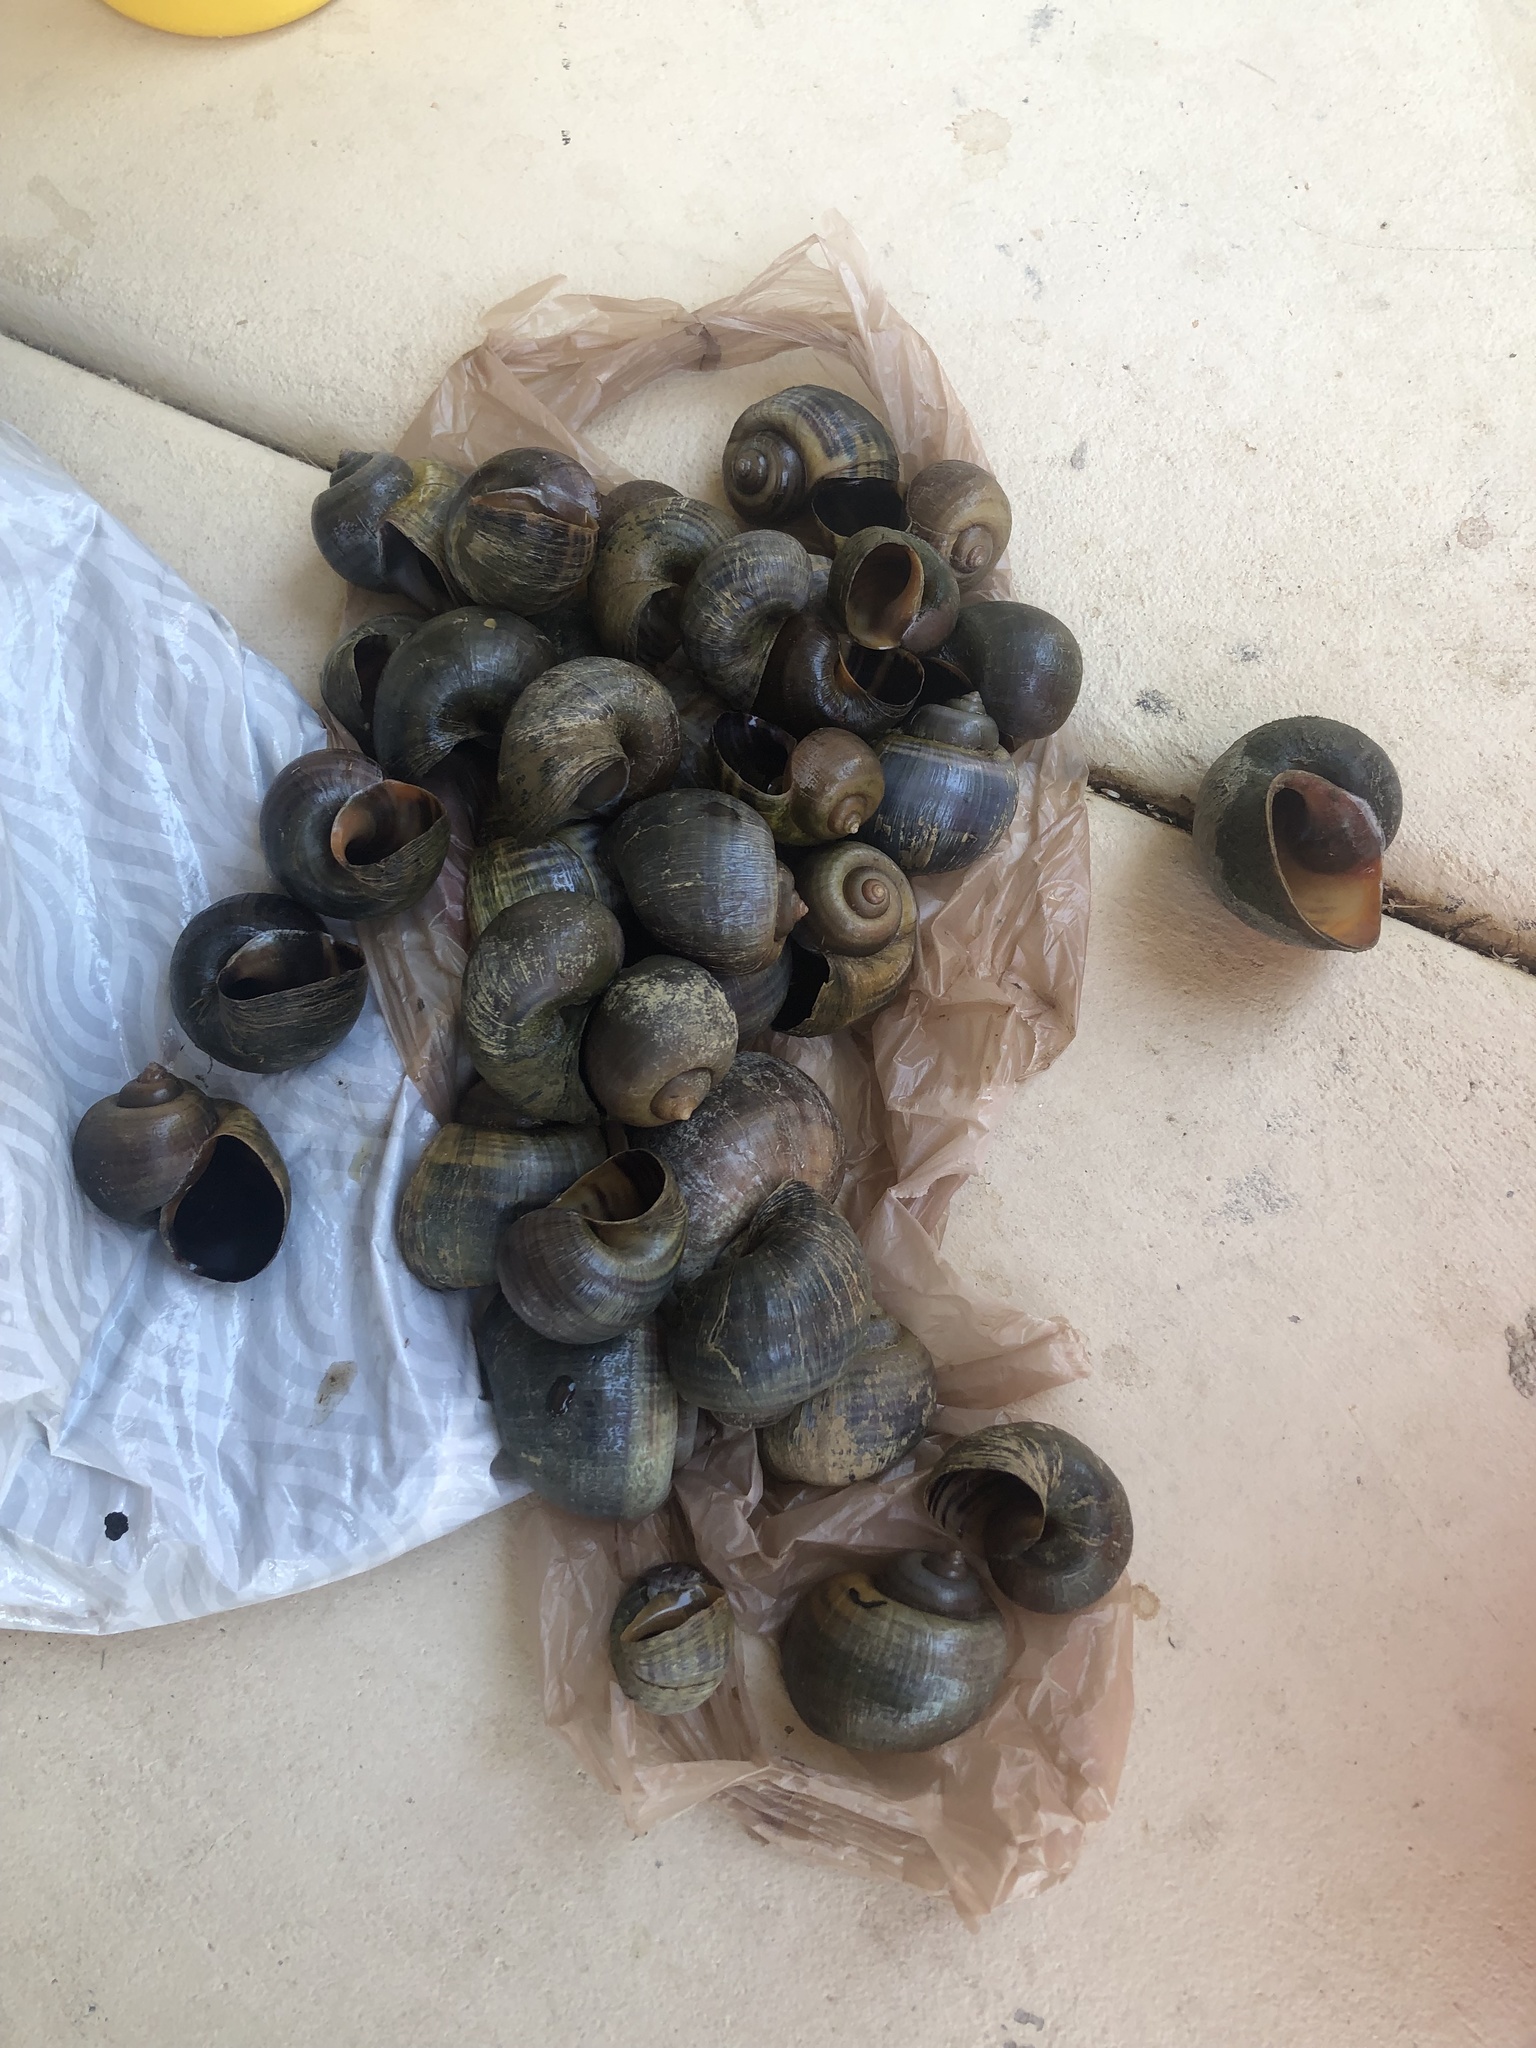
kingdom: Animalia
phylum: Mollusca
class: Gastropoda
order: Architaenioglossa
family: Ampullariidae
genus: Pomacea
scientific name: Pomacea canaliculata
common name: Channeled applesnail
